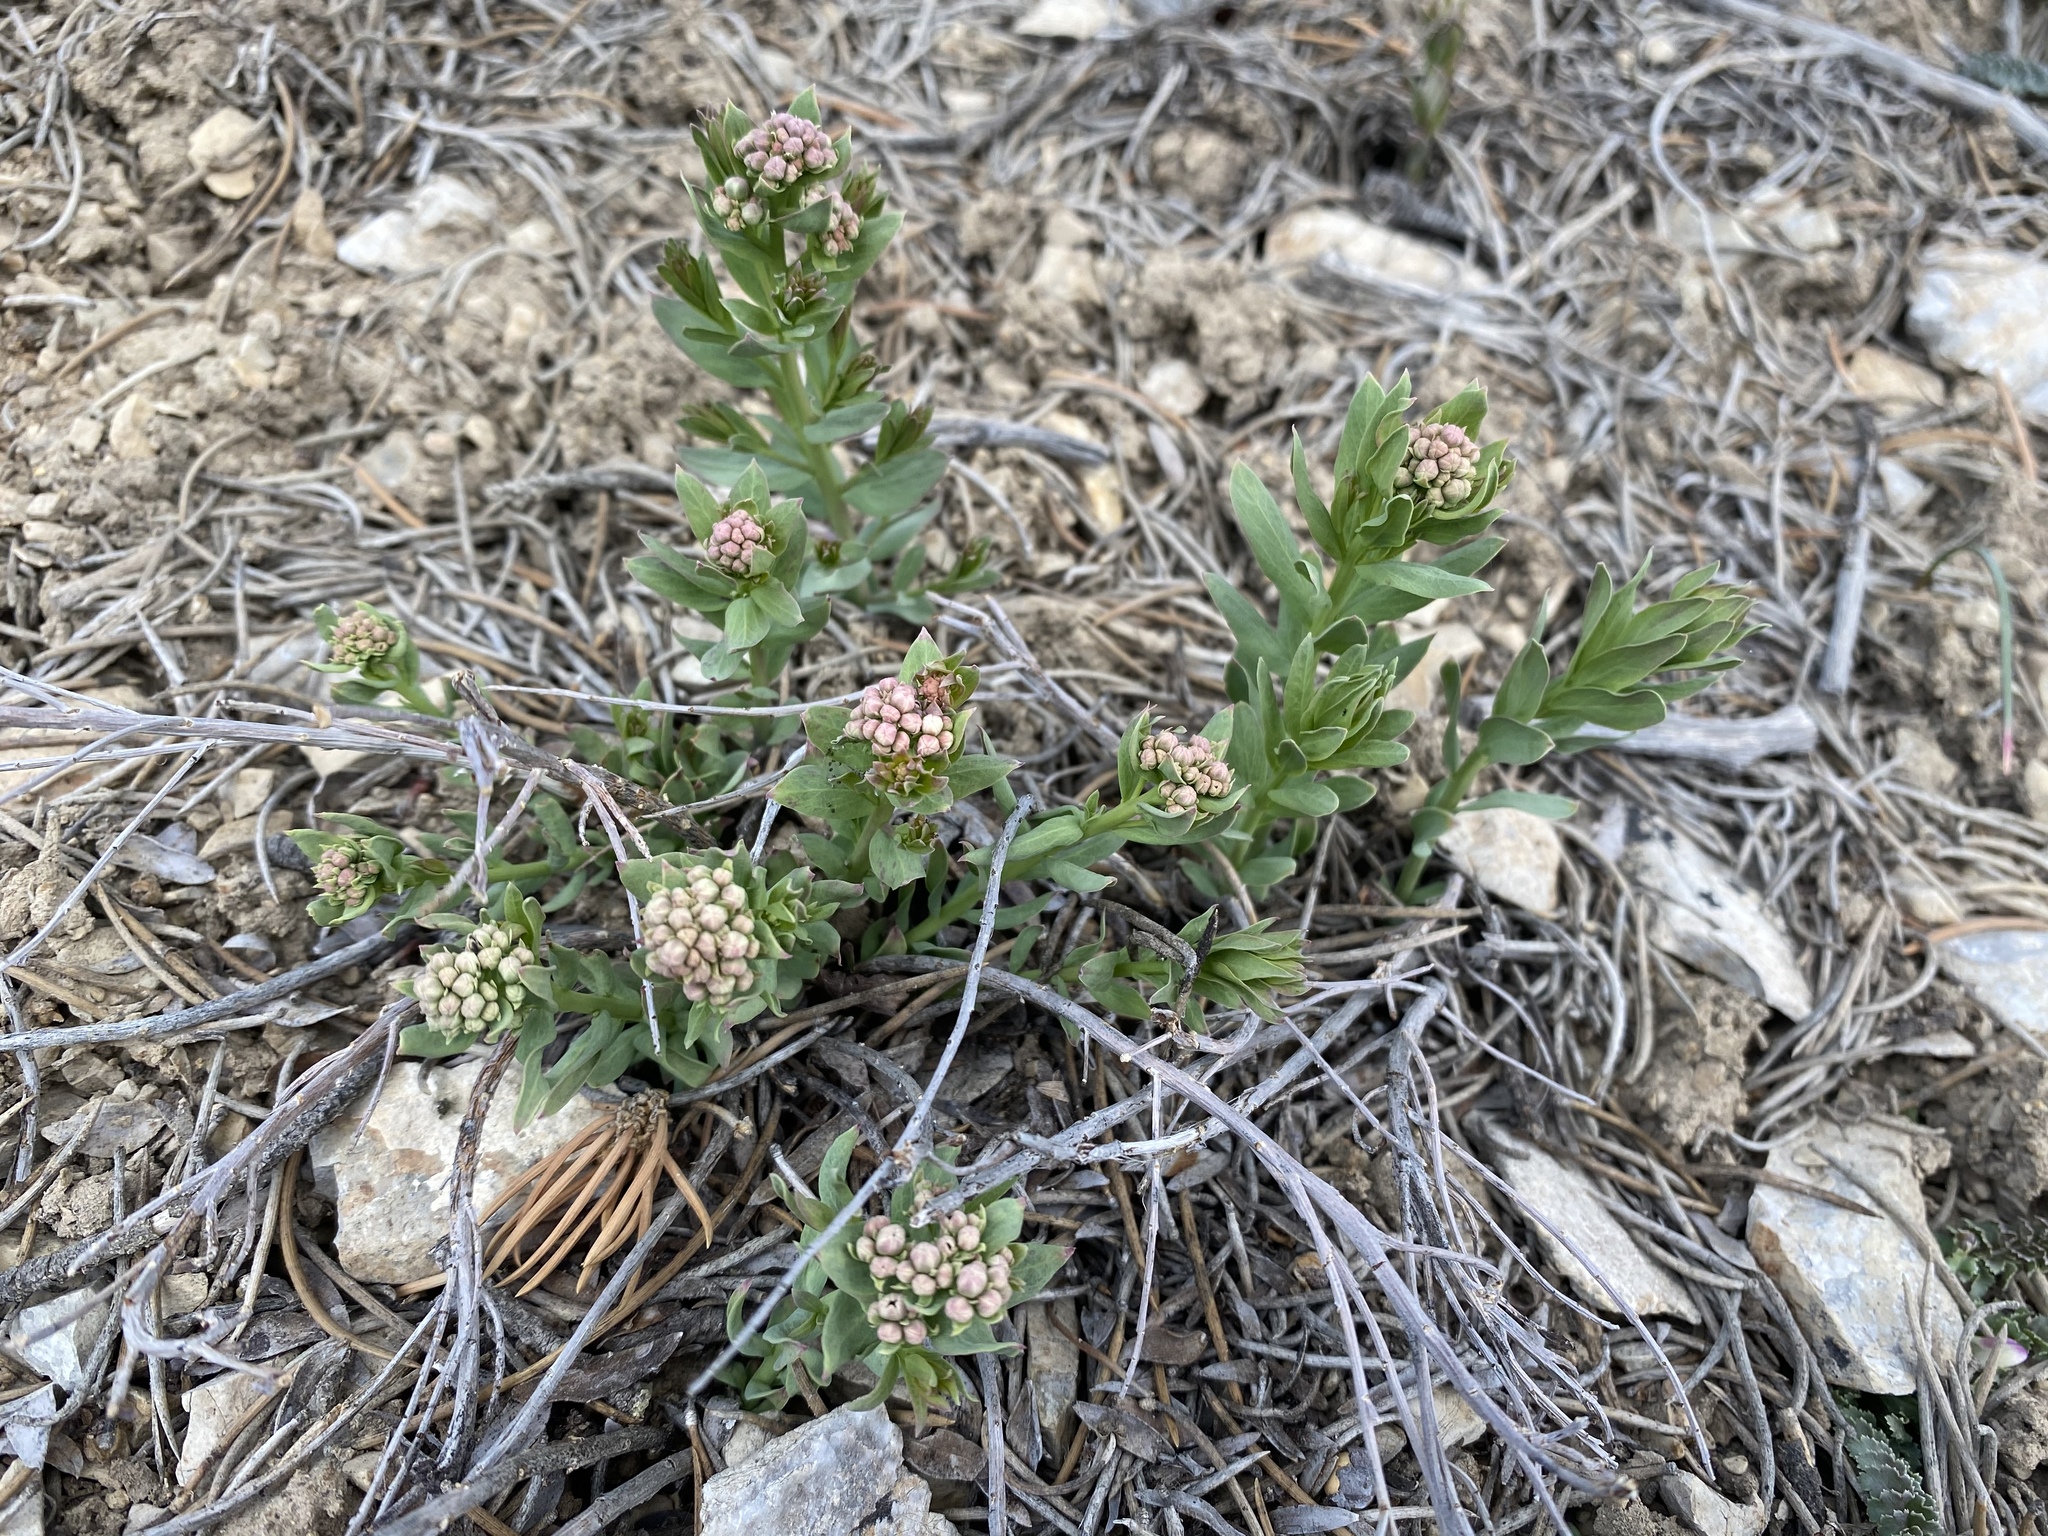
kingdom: Plantae
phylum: Tracheophyta
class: Magnoliopsida
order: Santalales
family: Comandraceae
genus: Comandra
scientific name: Comandra umbellata
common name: Bastard toadflax
